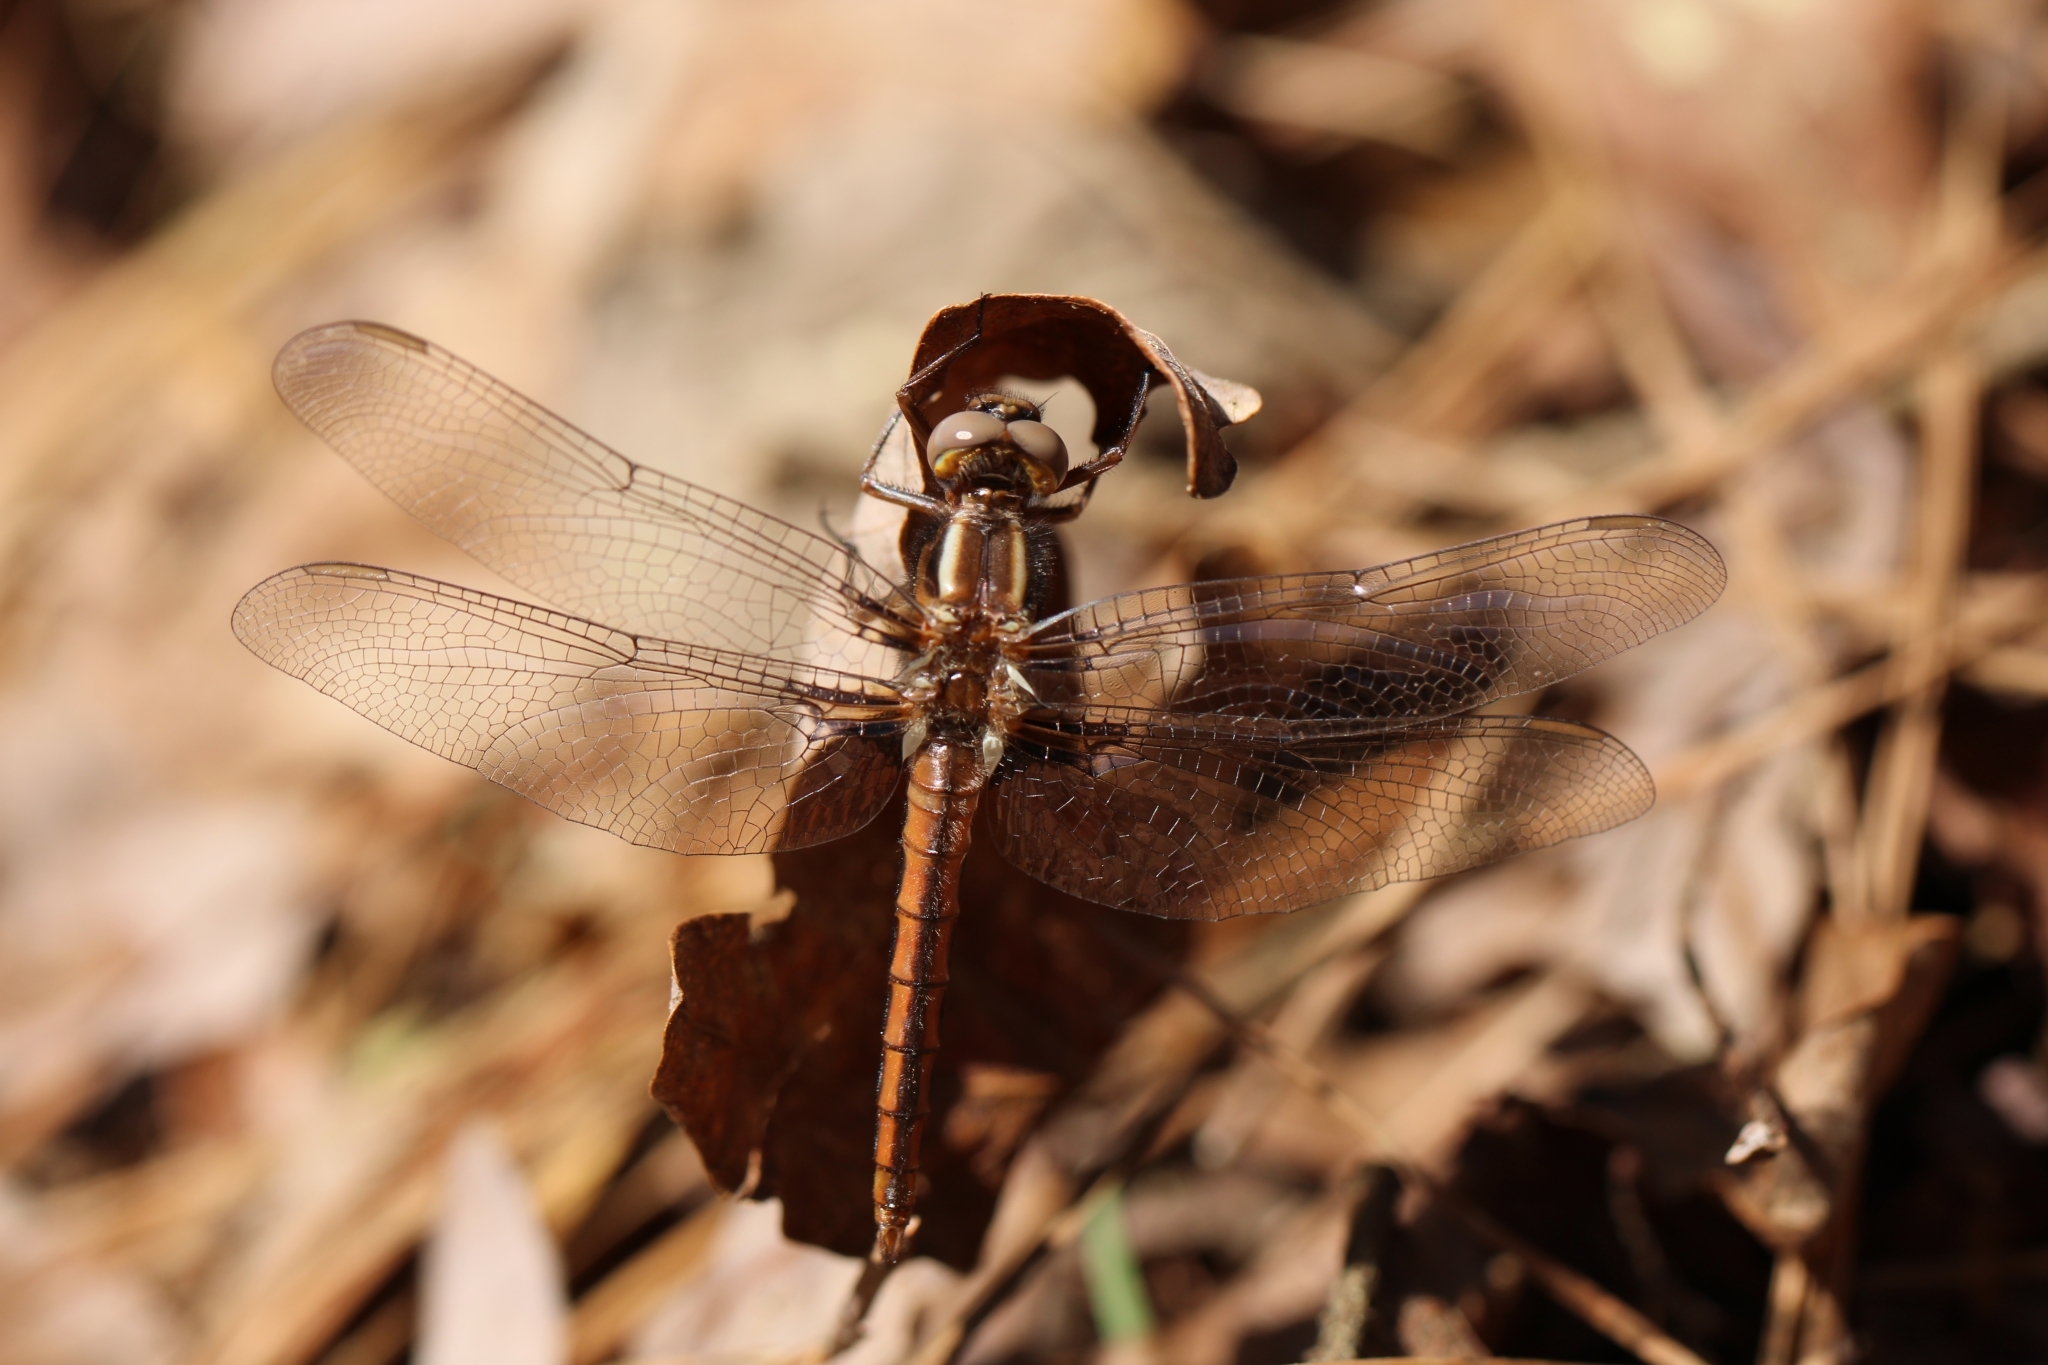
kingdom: Animalia
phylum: Arthropoda
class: Insecta
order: Odonata
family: Libellulidae
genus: Ladona
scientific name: Ladona deplanata
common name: Blue corporal
